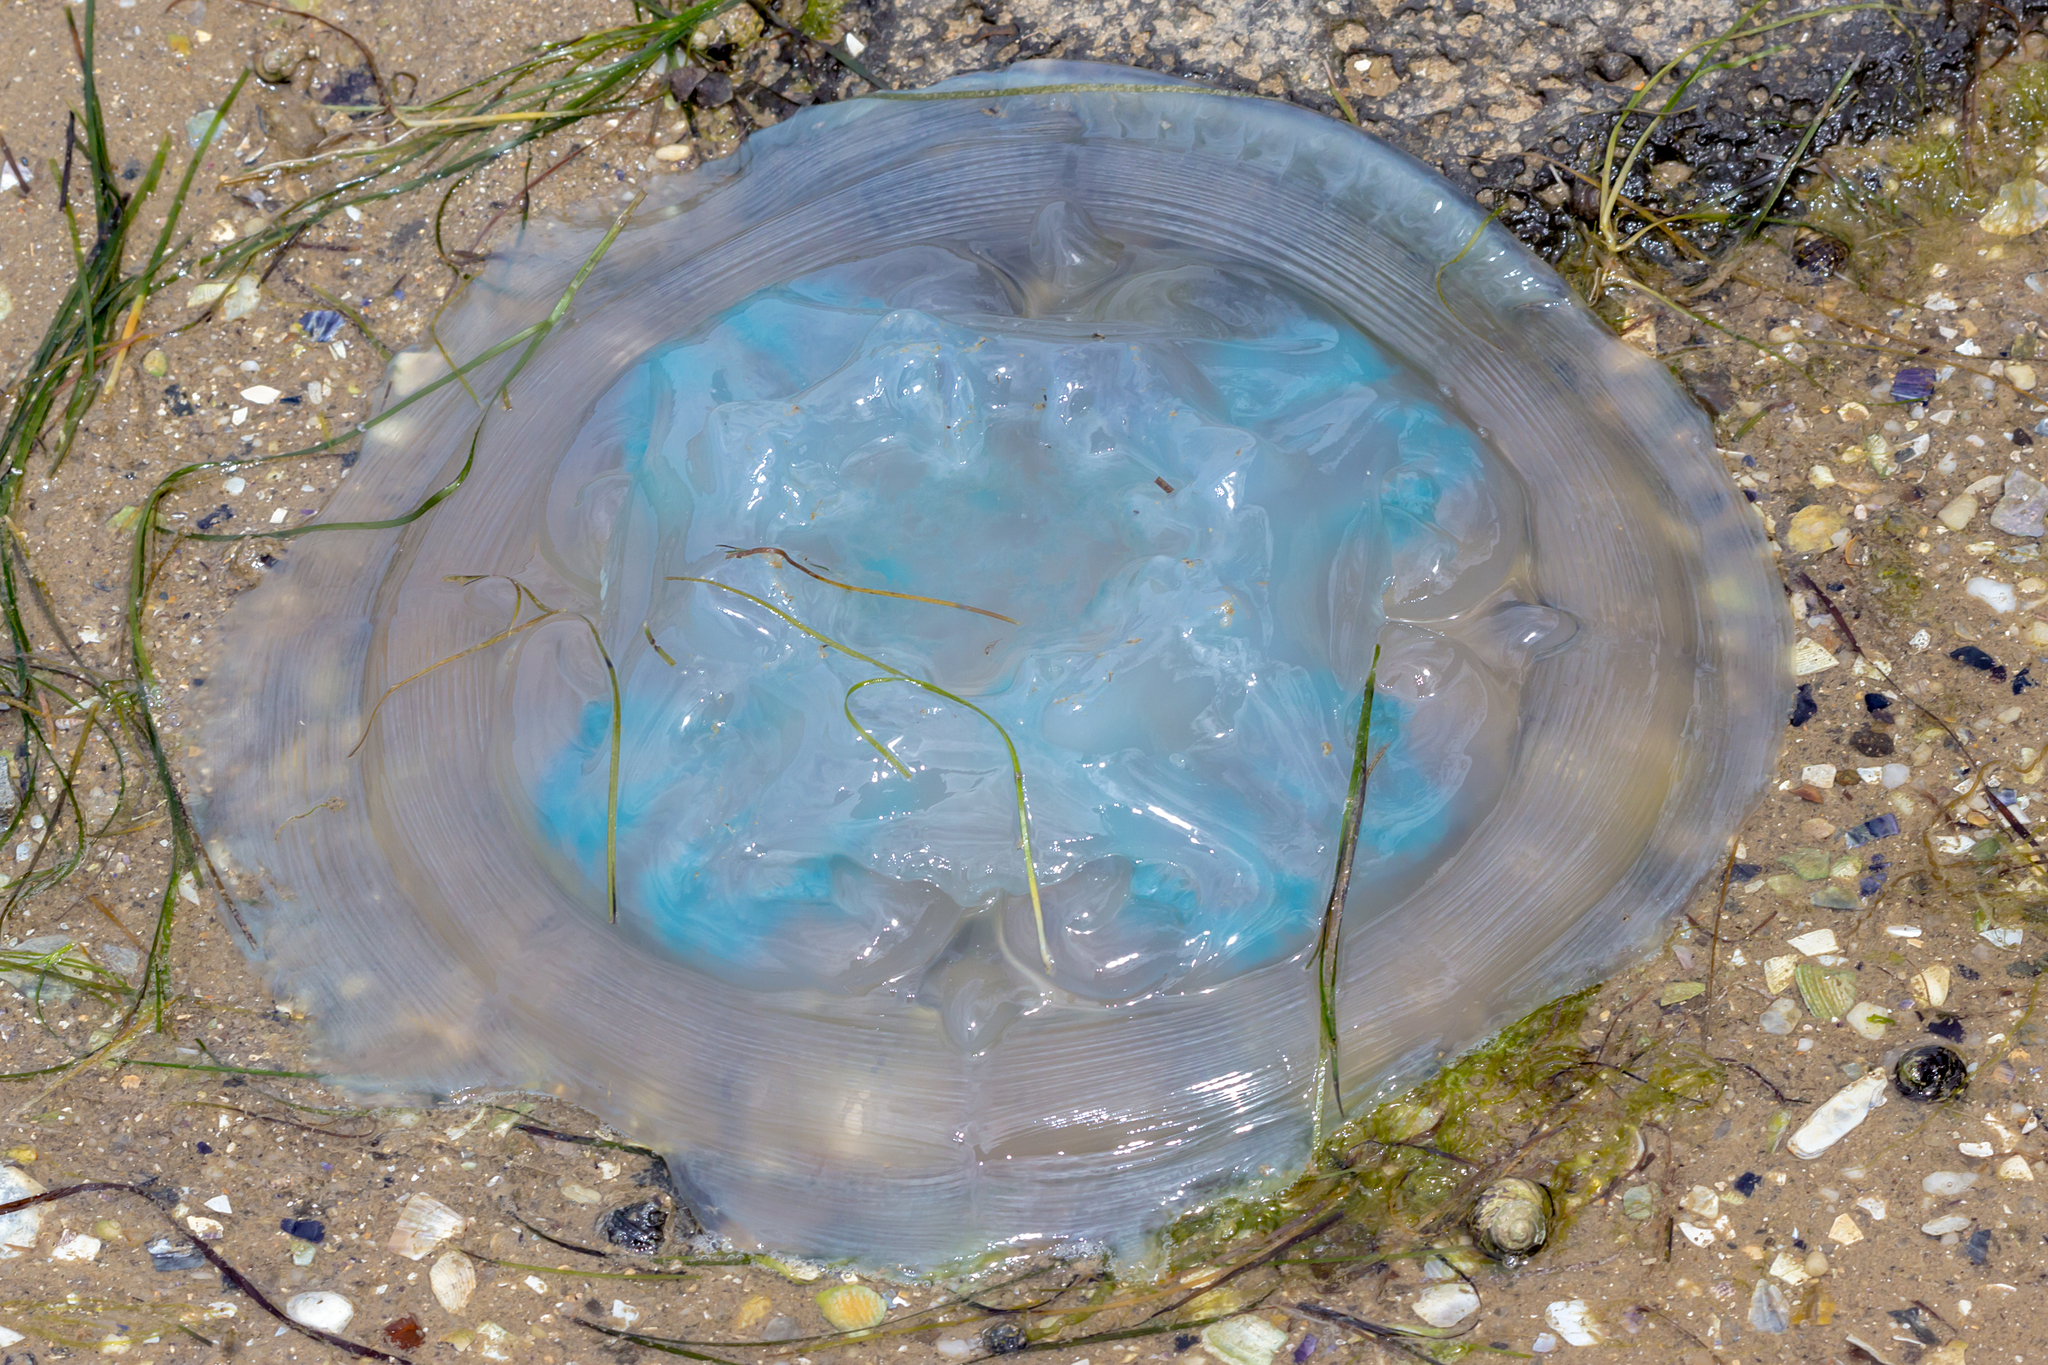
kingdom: Animalia
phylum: Cnidaria
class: Scyphozoa
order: Rhizostomeae
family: Catostylidae
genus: Catostylus
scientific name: Catostylus mosaicus
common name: Blue blubber
